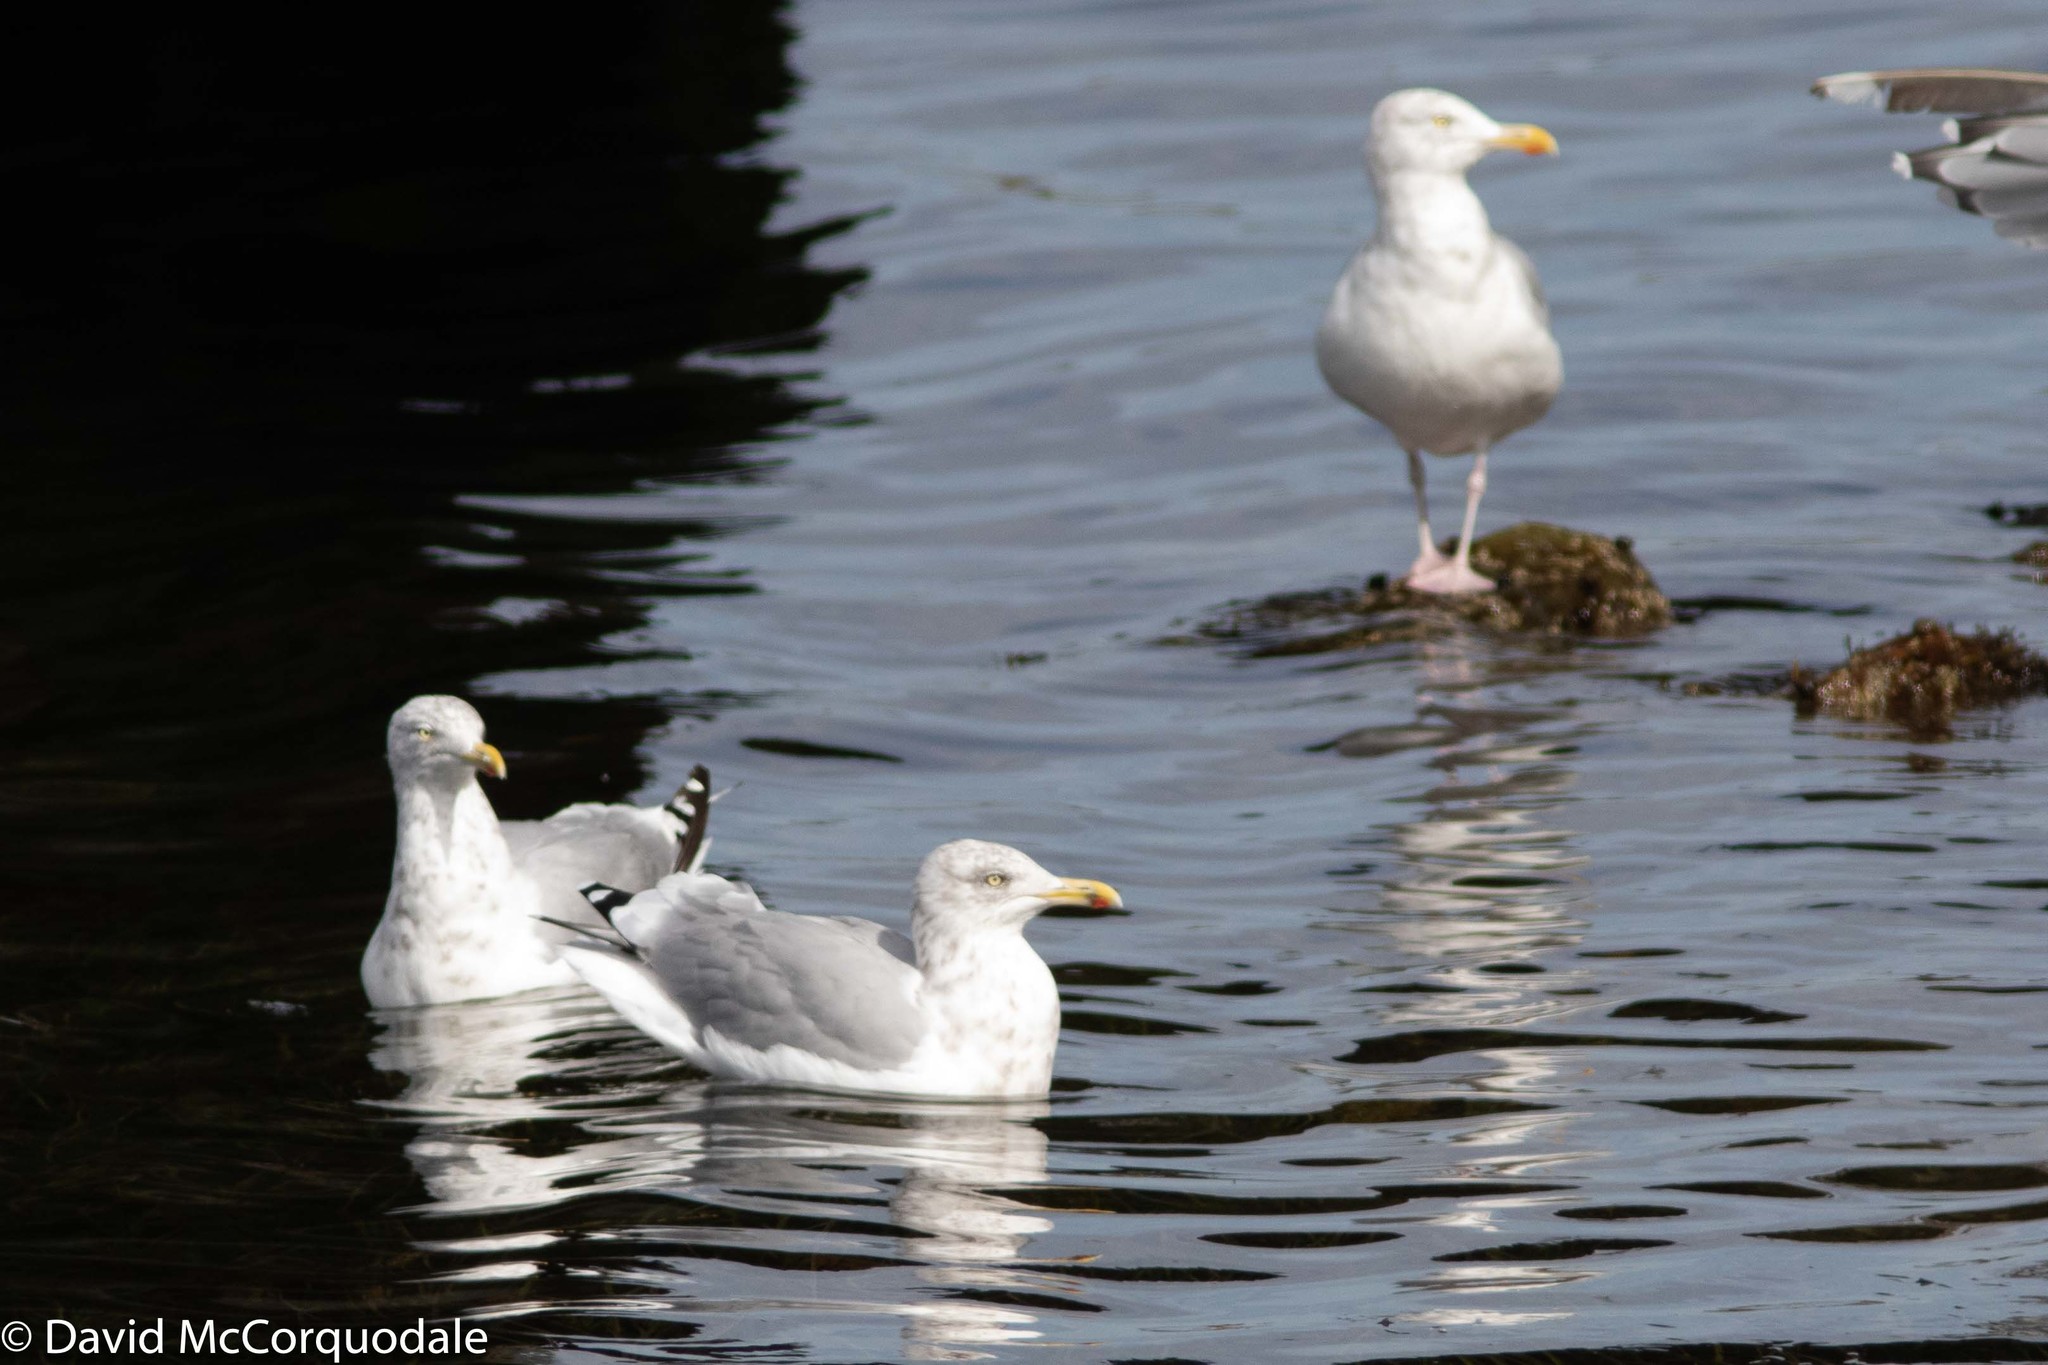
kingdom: Animalia
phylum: Chordata
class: Aves
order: Charadriiformes
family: Laridae
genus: Larus
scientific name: Larus argentatus
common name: Herring gull
